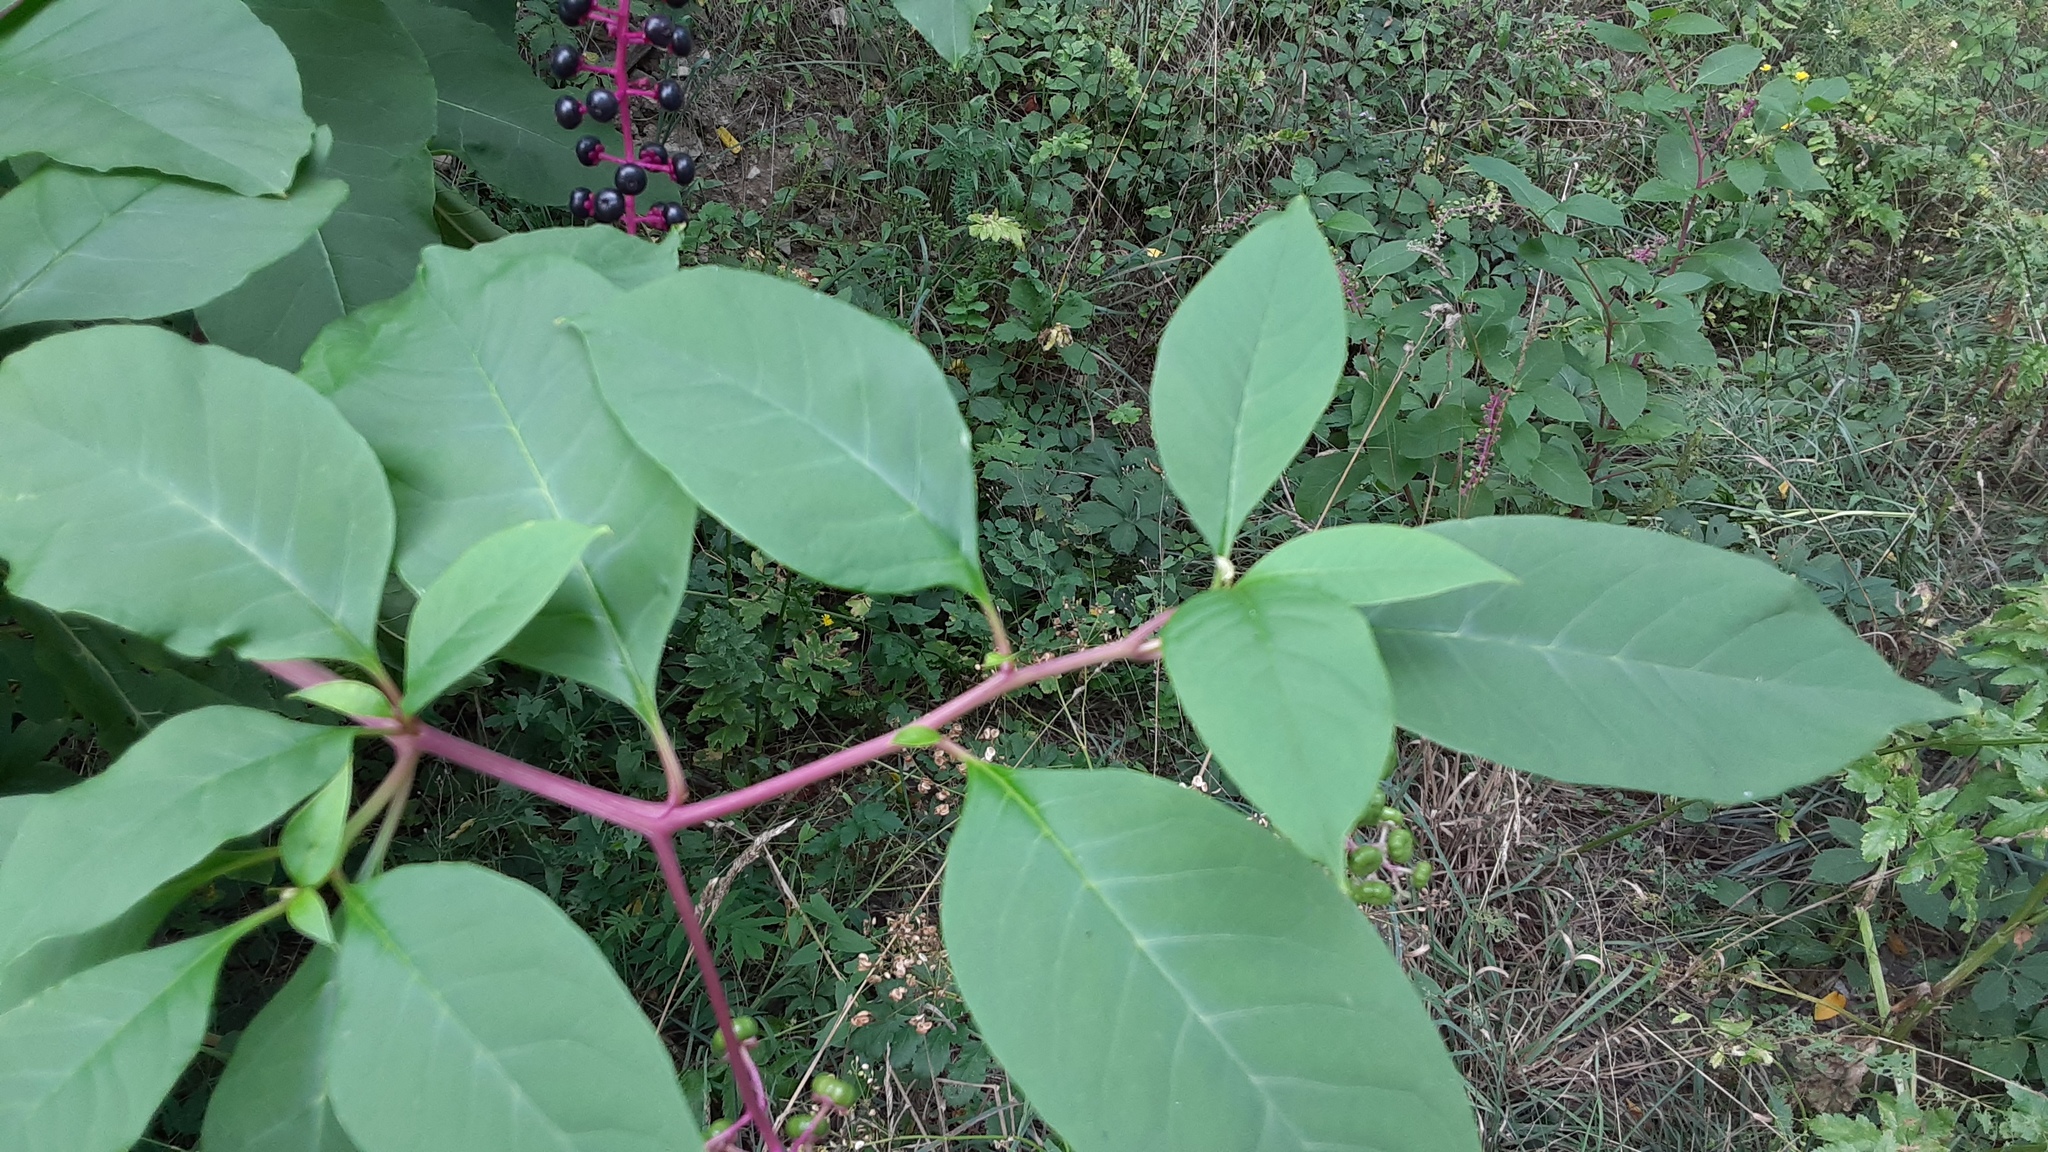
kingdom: Plantae
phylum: Tracheophyta
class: Magnoliopsida
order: Caryophyllales
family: Phytolaccaceae
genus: Phytolacca
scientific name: Phytolacca americana
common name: American pokeweed
